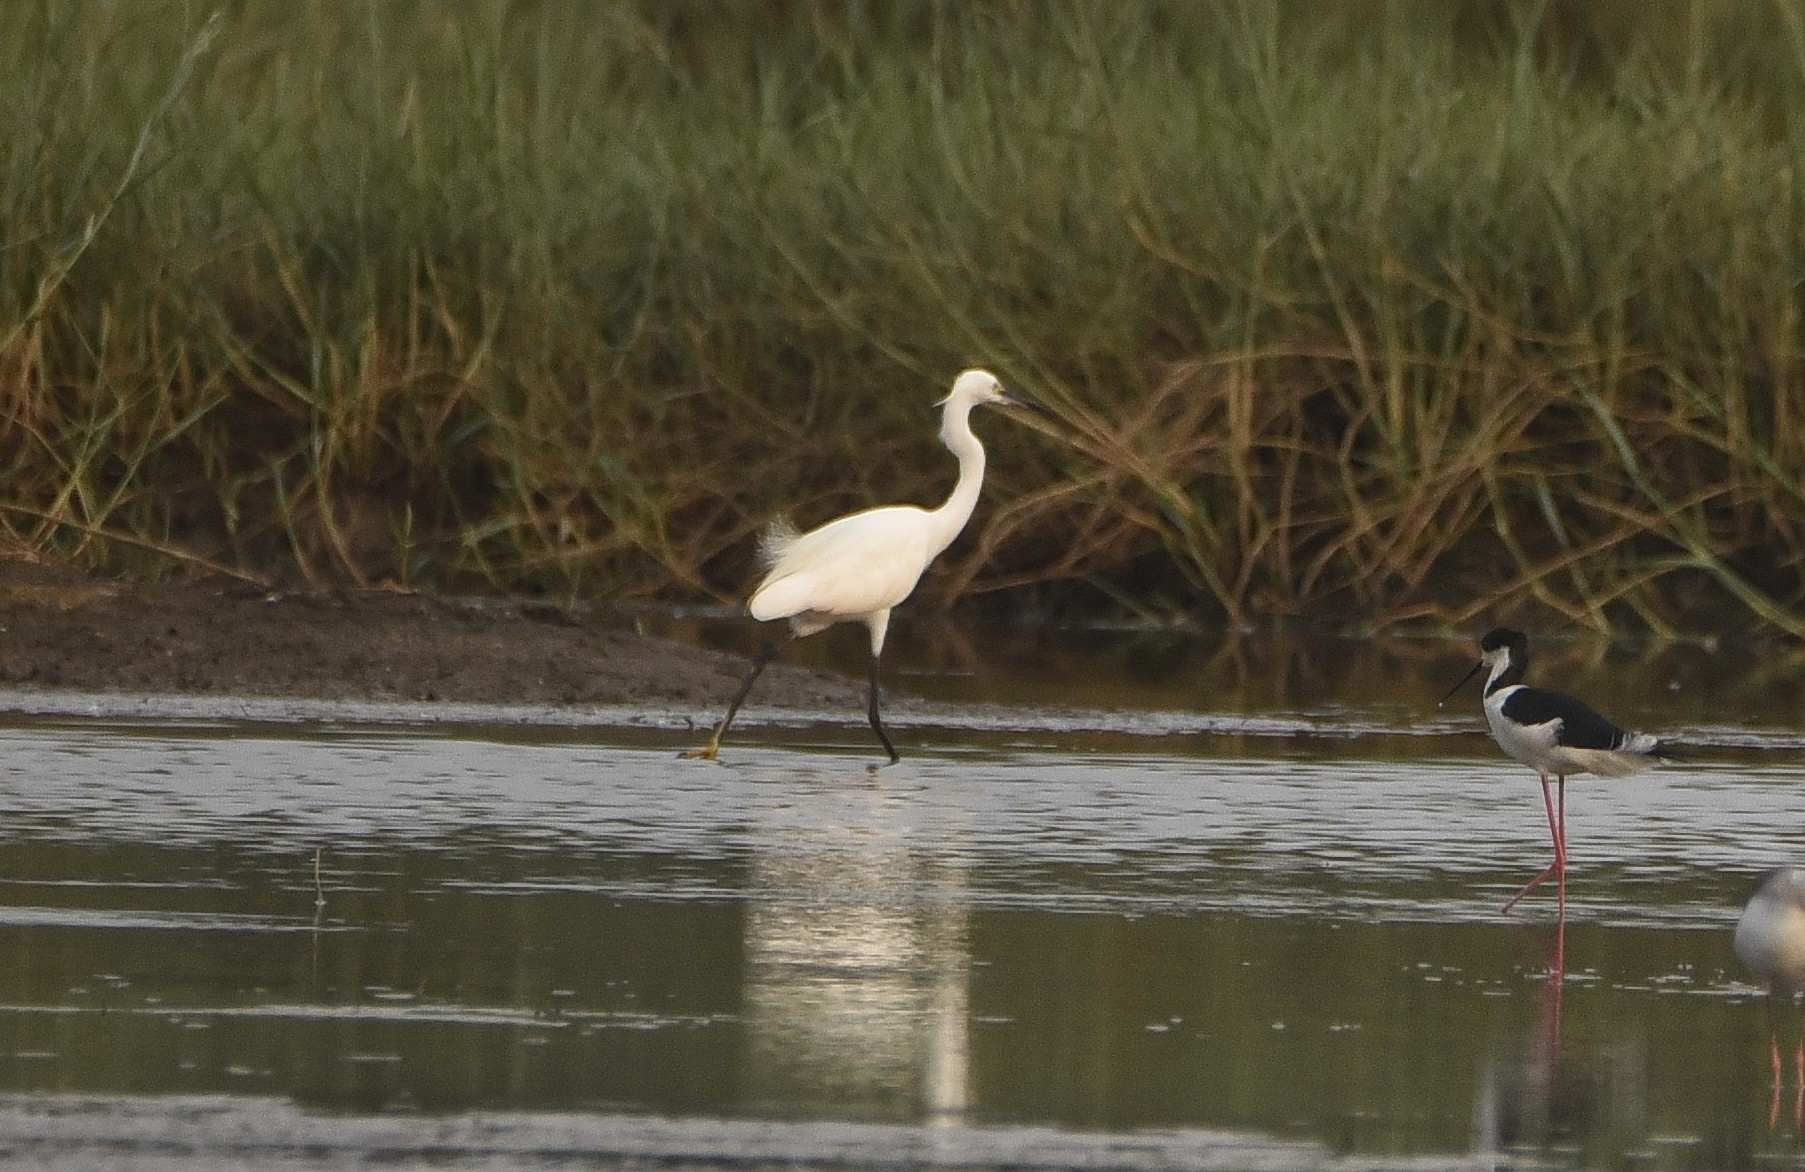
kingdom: Animalia
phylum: Chordata
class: Aves
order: Pelecaniformes
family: Ardeidae
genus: Egretta
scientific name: Egretta garzetta
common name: Little egret
